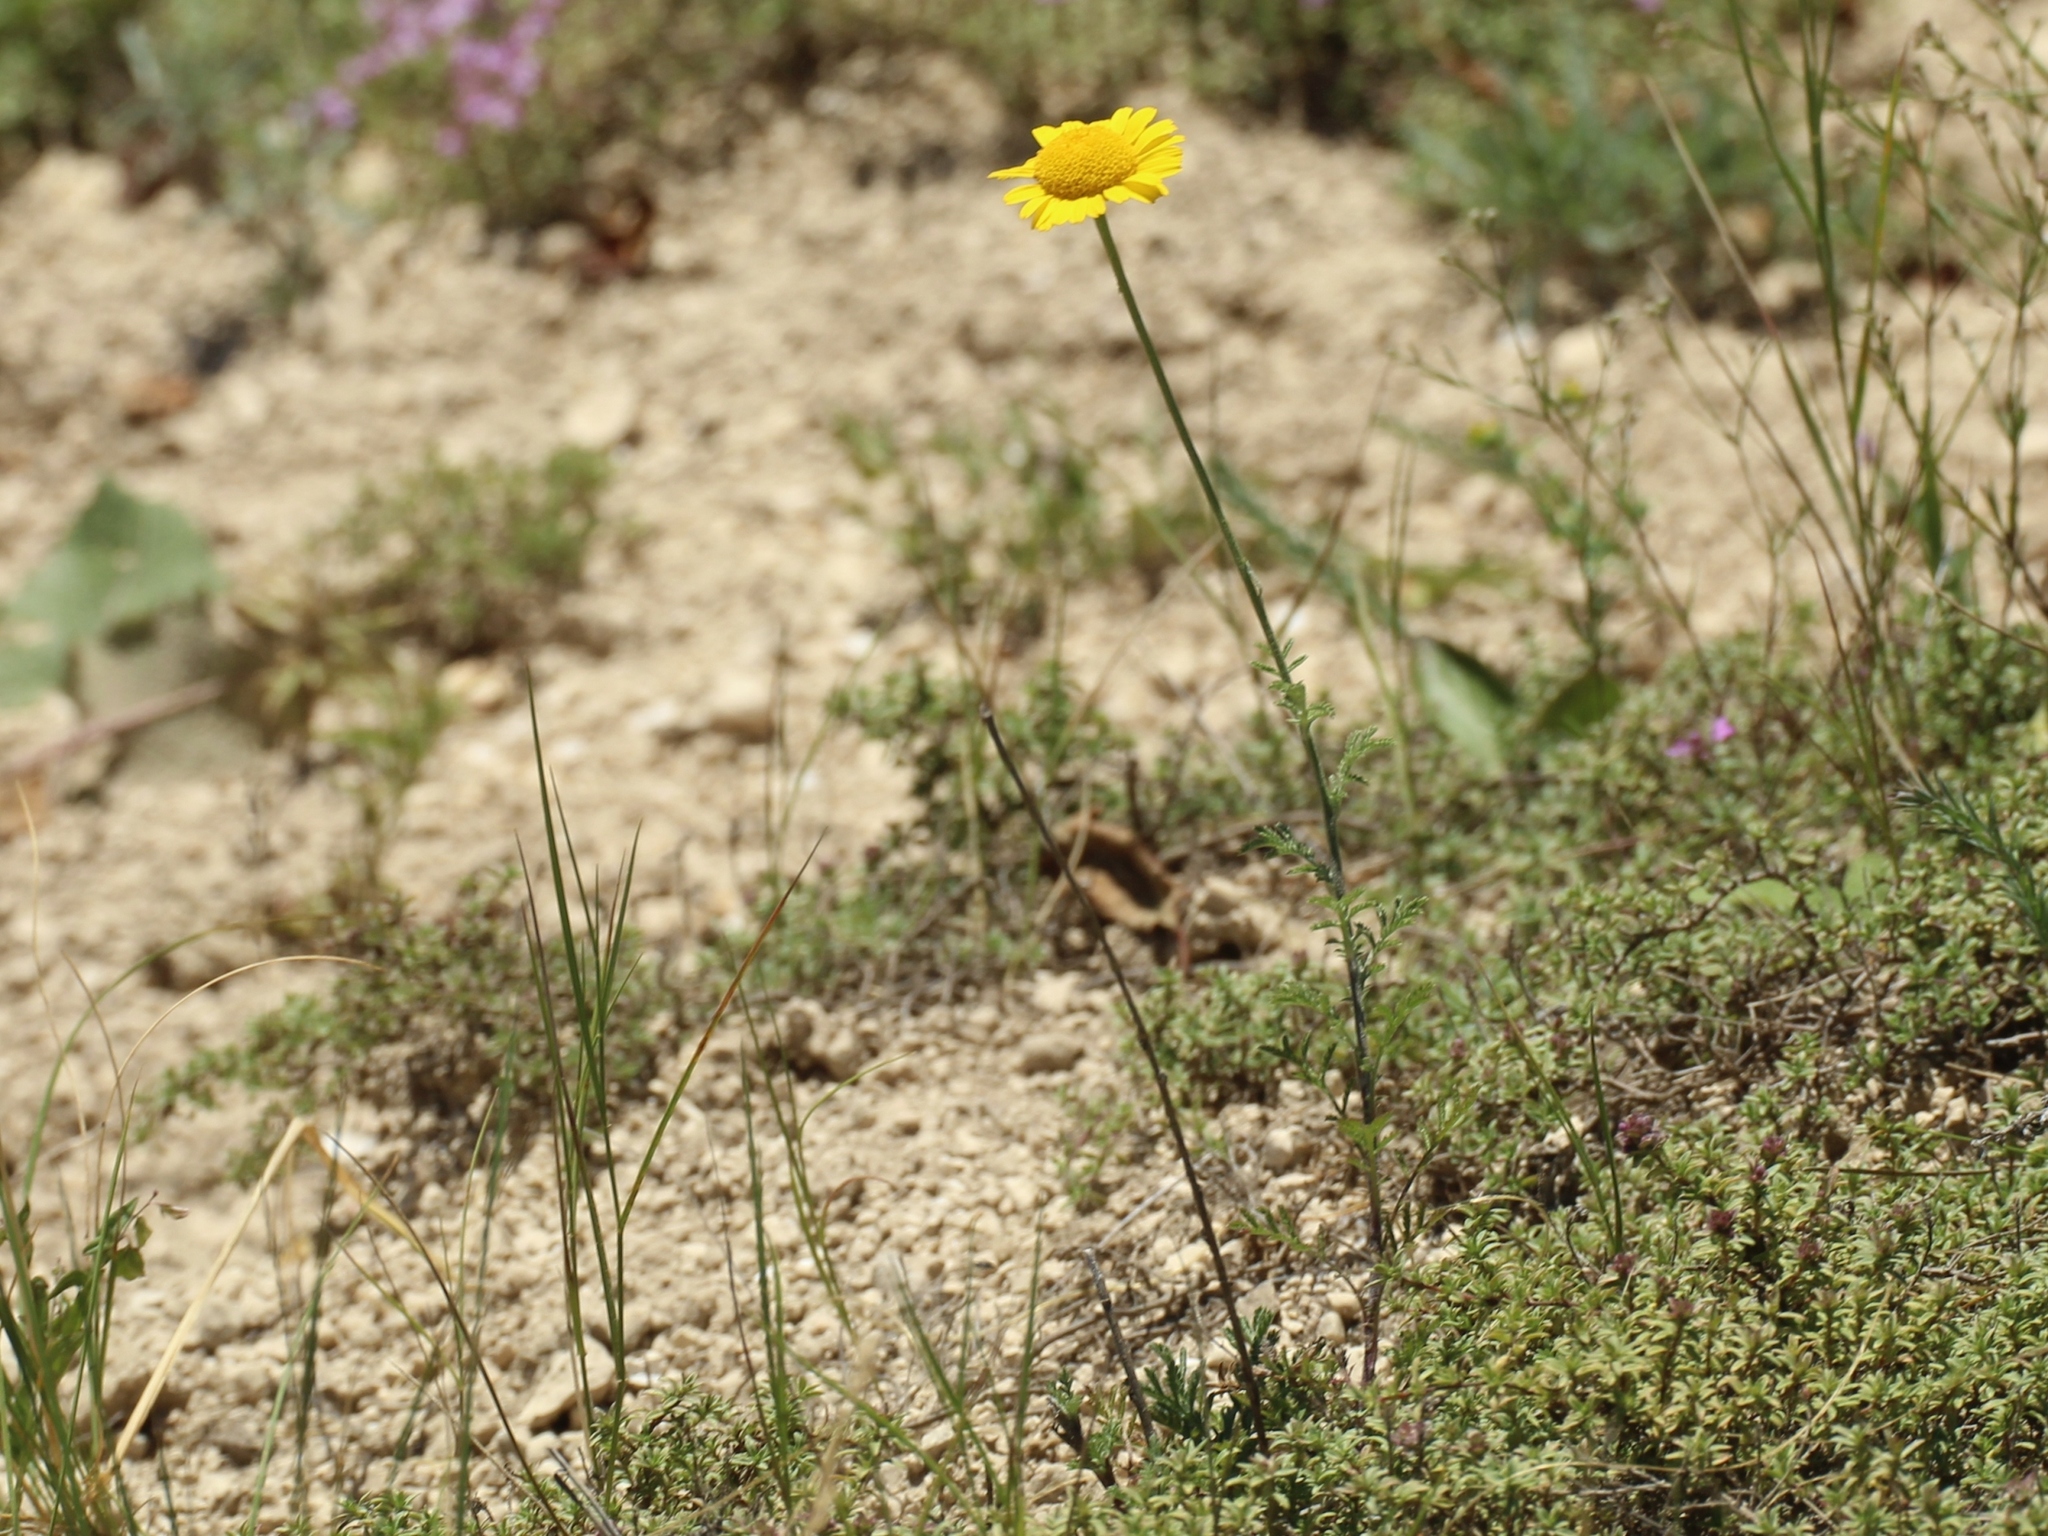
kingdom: Plantae
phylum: Tracheophyta
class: Magnoliopsida
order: Asterales
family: Asteraceae
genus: Cota
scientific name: Cota tinctoria
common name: Golden chamomile
